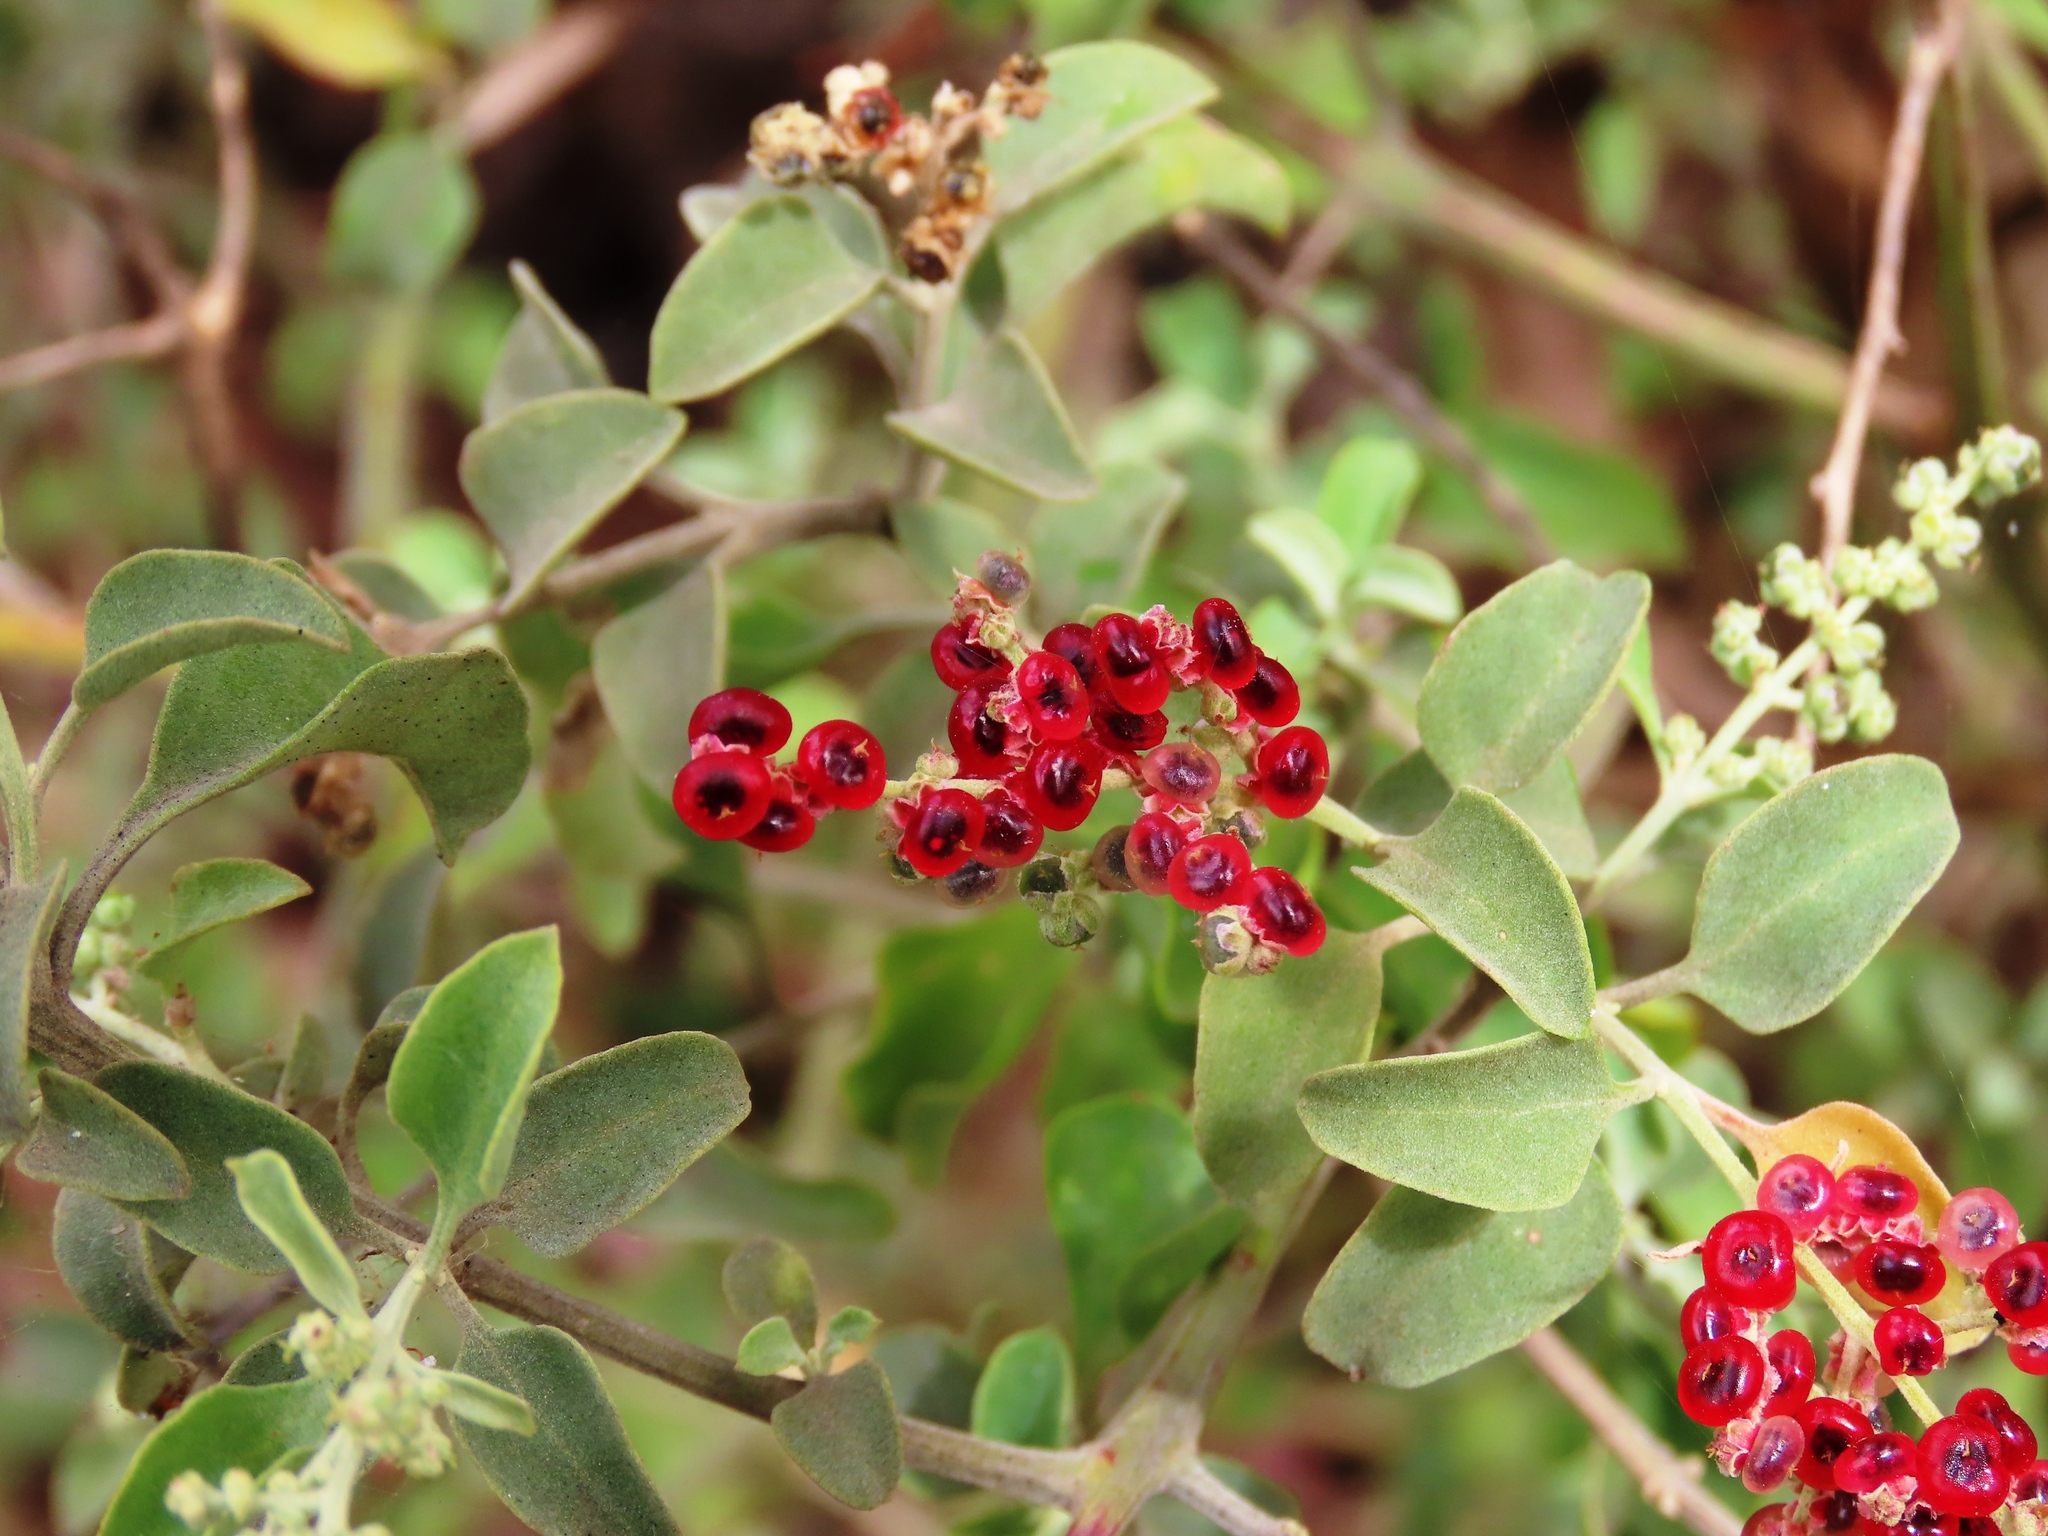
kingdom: Plantae
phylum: Tracheophyta
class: Magnoliopsida
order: Caryophyllales
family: Amaranthaceae
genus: Chenopodium
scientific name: Chenopodium parabolicum
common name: Old-man-saltbush
